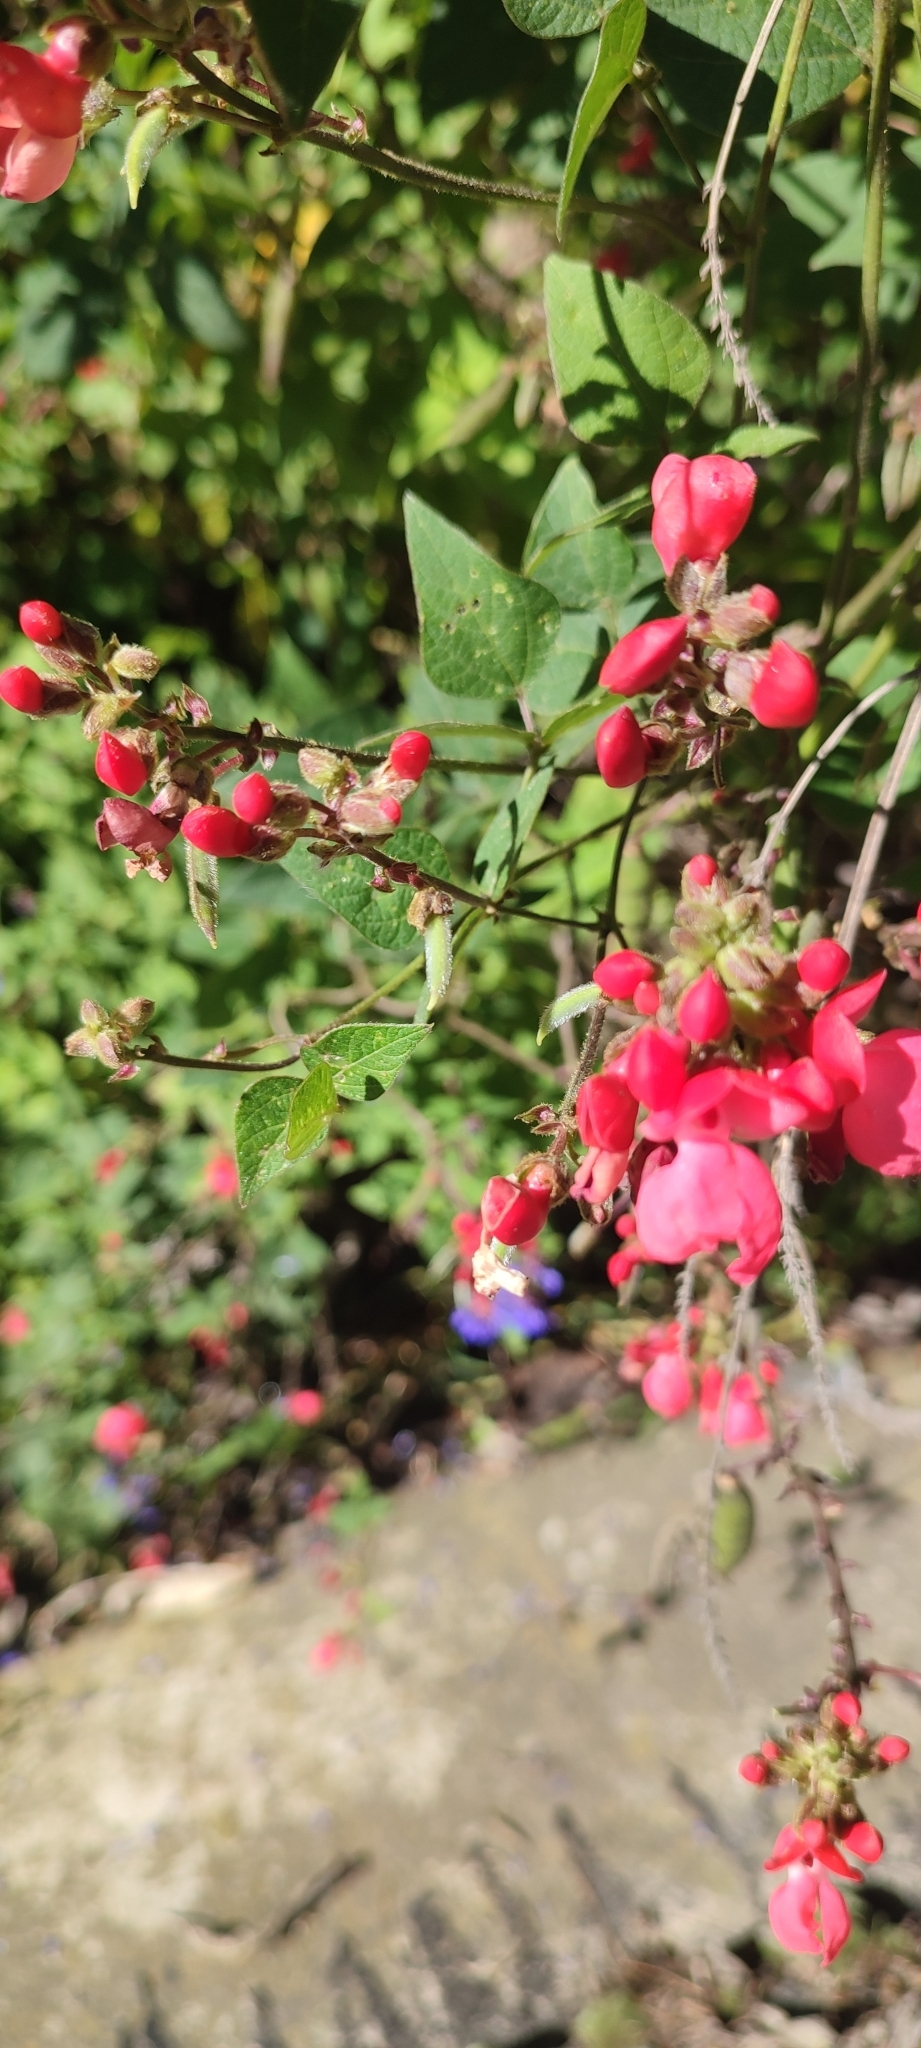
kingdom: Plantae
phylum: Tracheophyta
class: Magnoliopsida
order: Fabales
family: Fabaceae
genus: Phaseolus
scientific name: Phaseolus coccineus
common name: Runner bean
